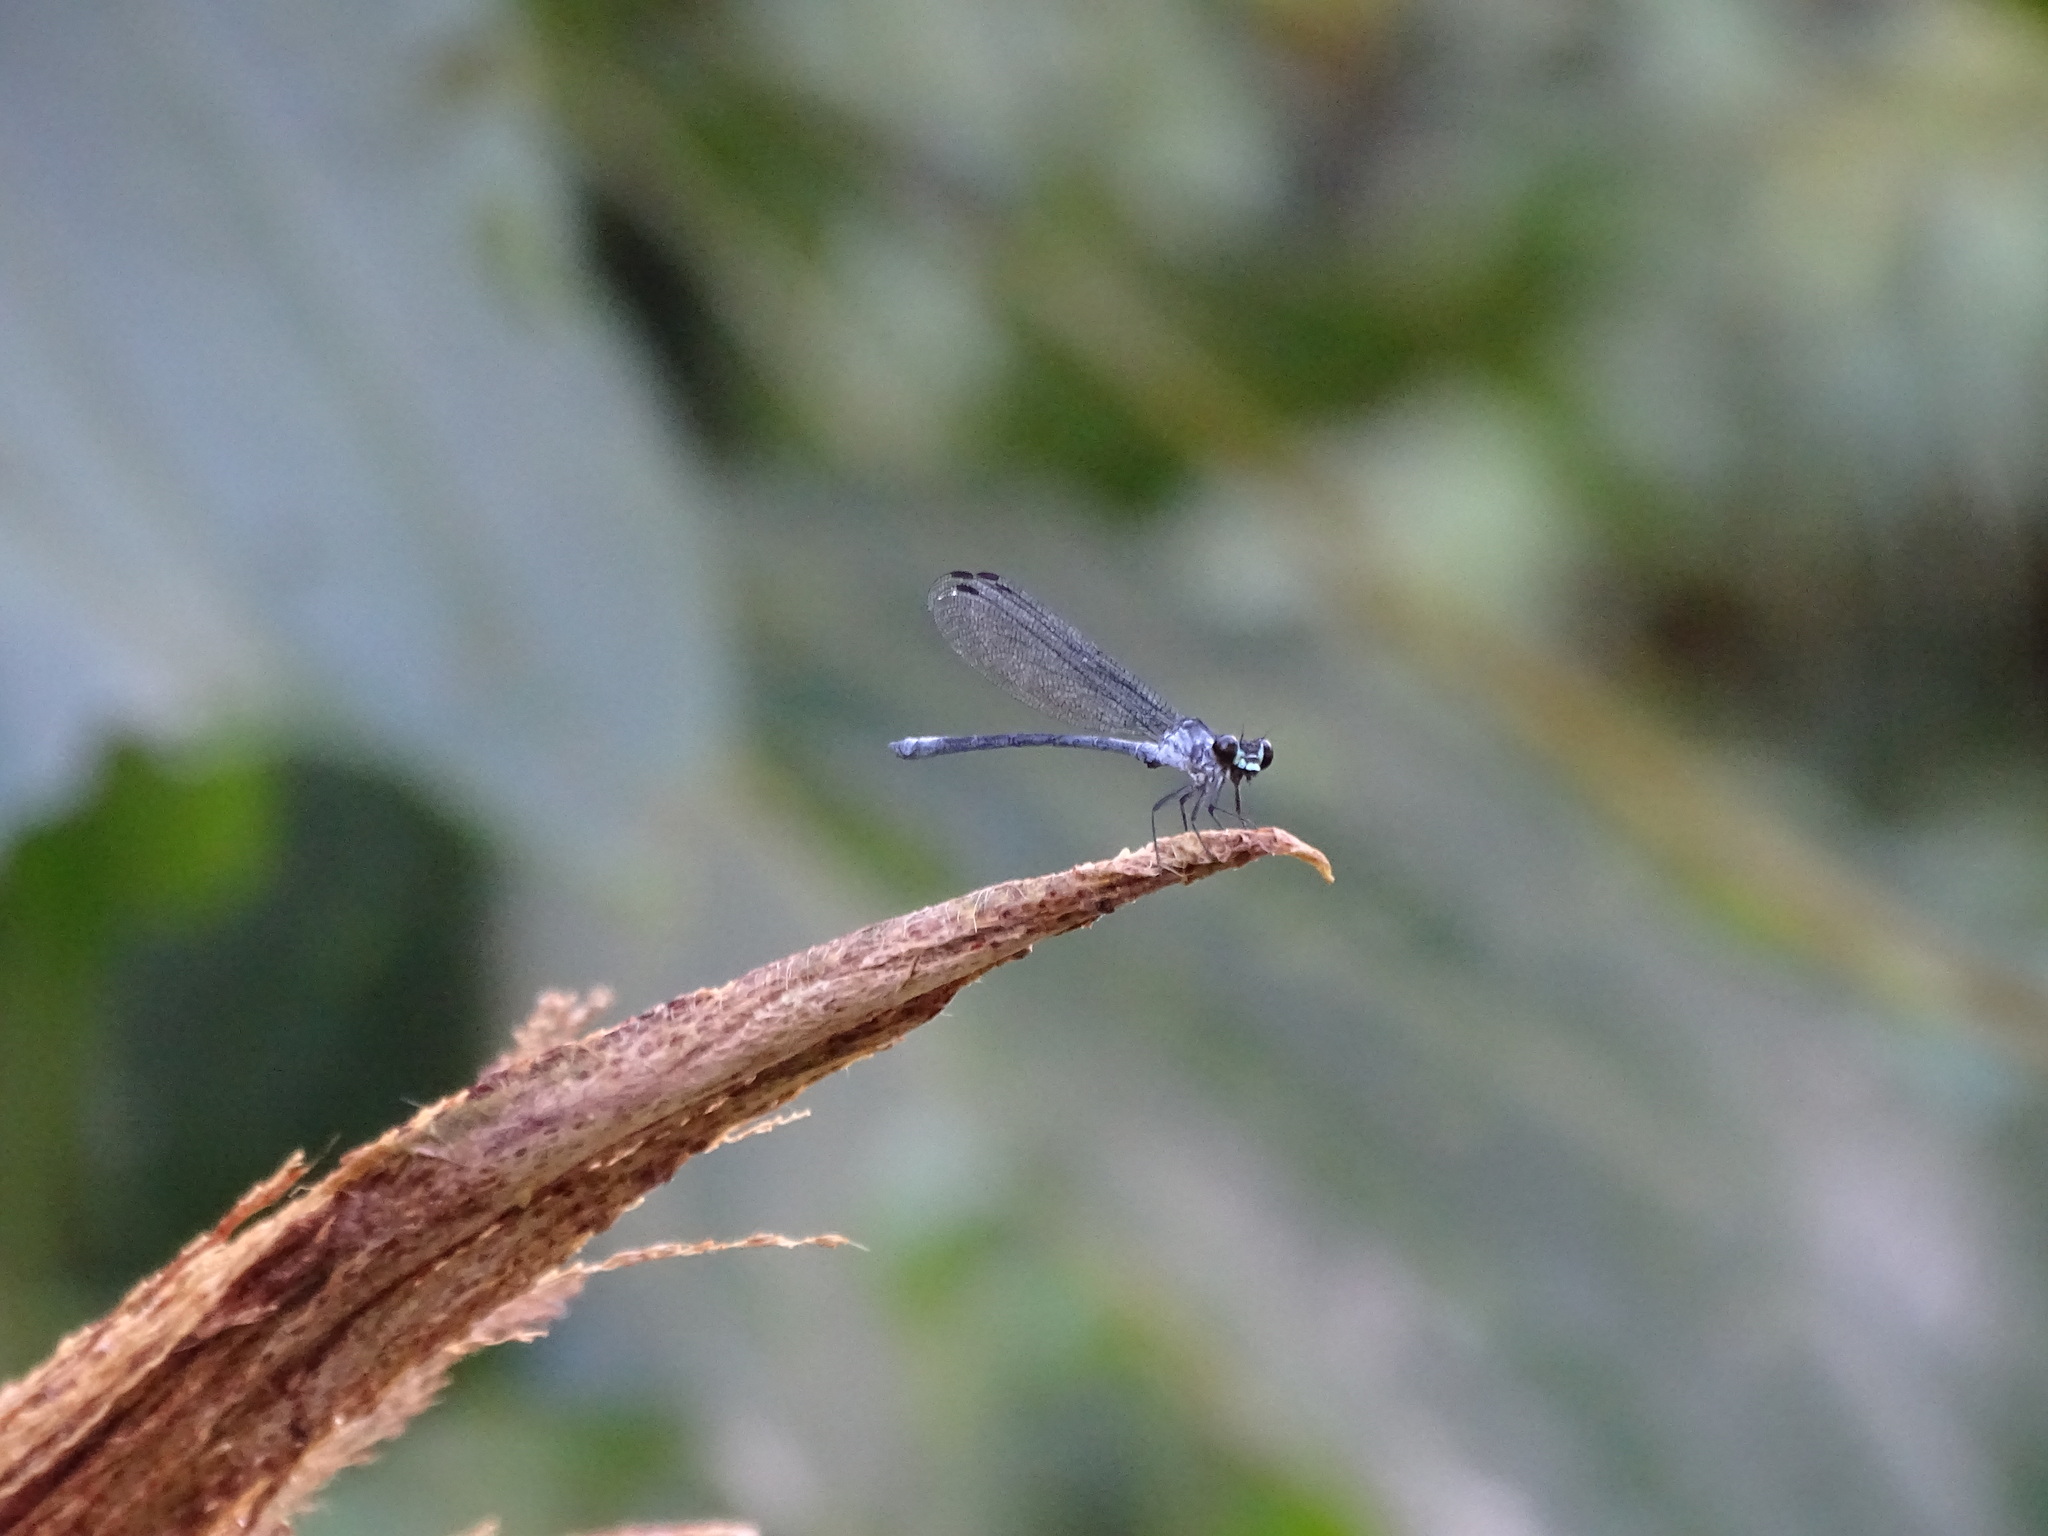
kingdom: Animalia
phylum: Arthropoda
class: Insecta
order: Odonata
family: Euphaeidae
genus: Bayadera
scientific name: Bayadera brevicauda
